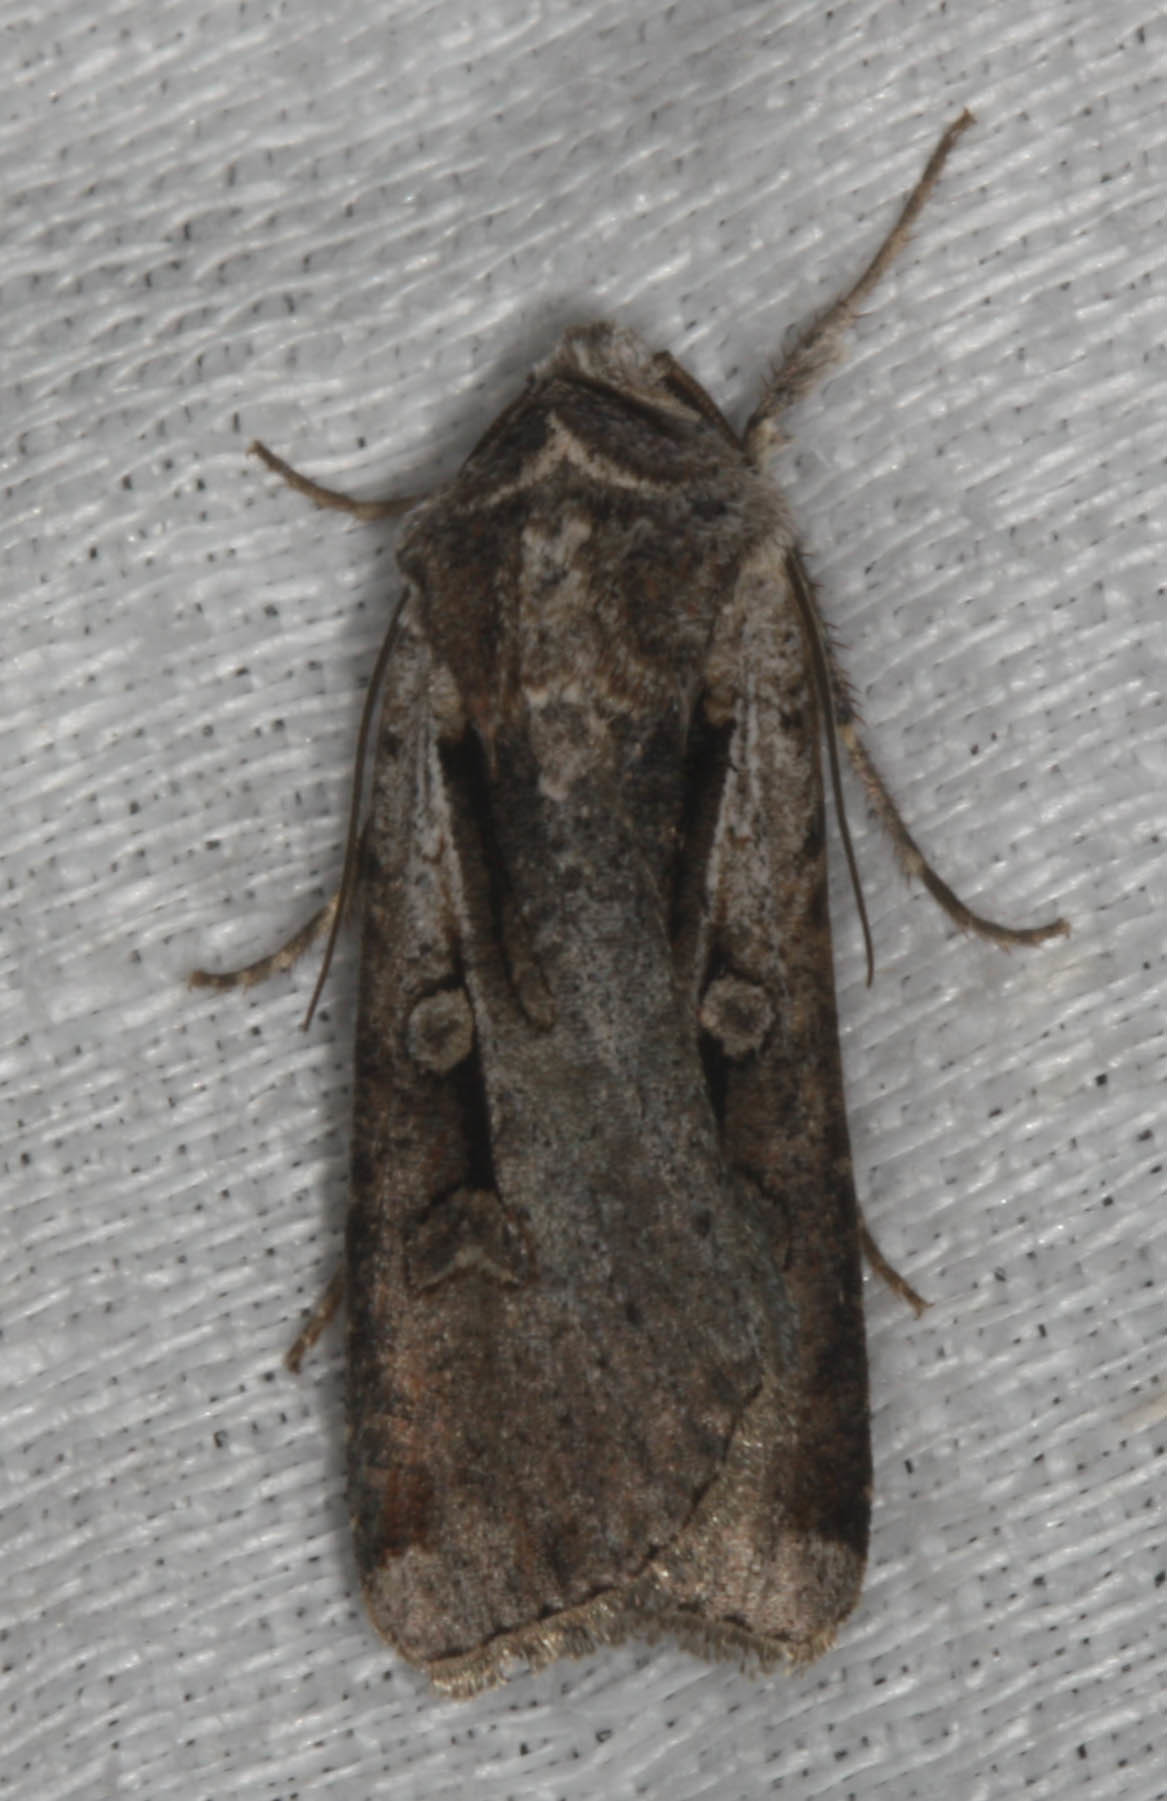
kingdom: Animalia
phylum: Arthropoda
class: Insecta
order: Lepidoptera
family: Noctuidae
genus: Hemieuxoa
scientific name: Hemieuxoa rudens
